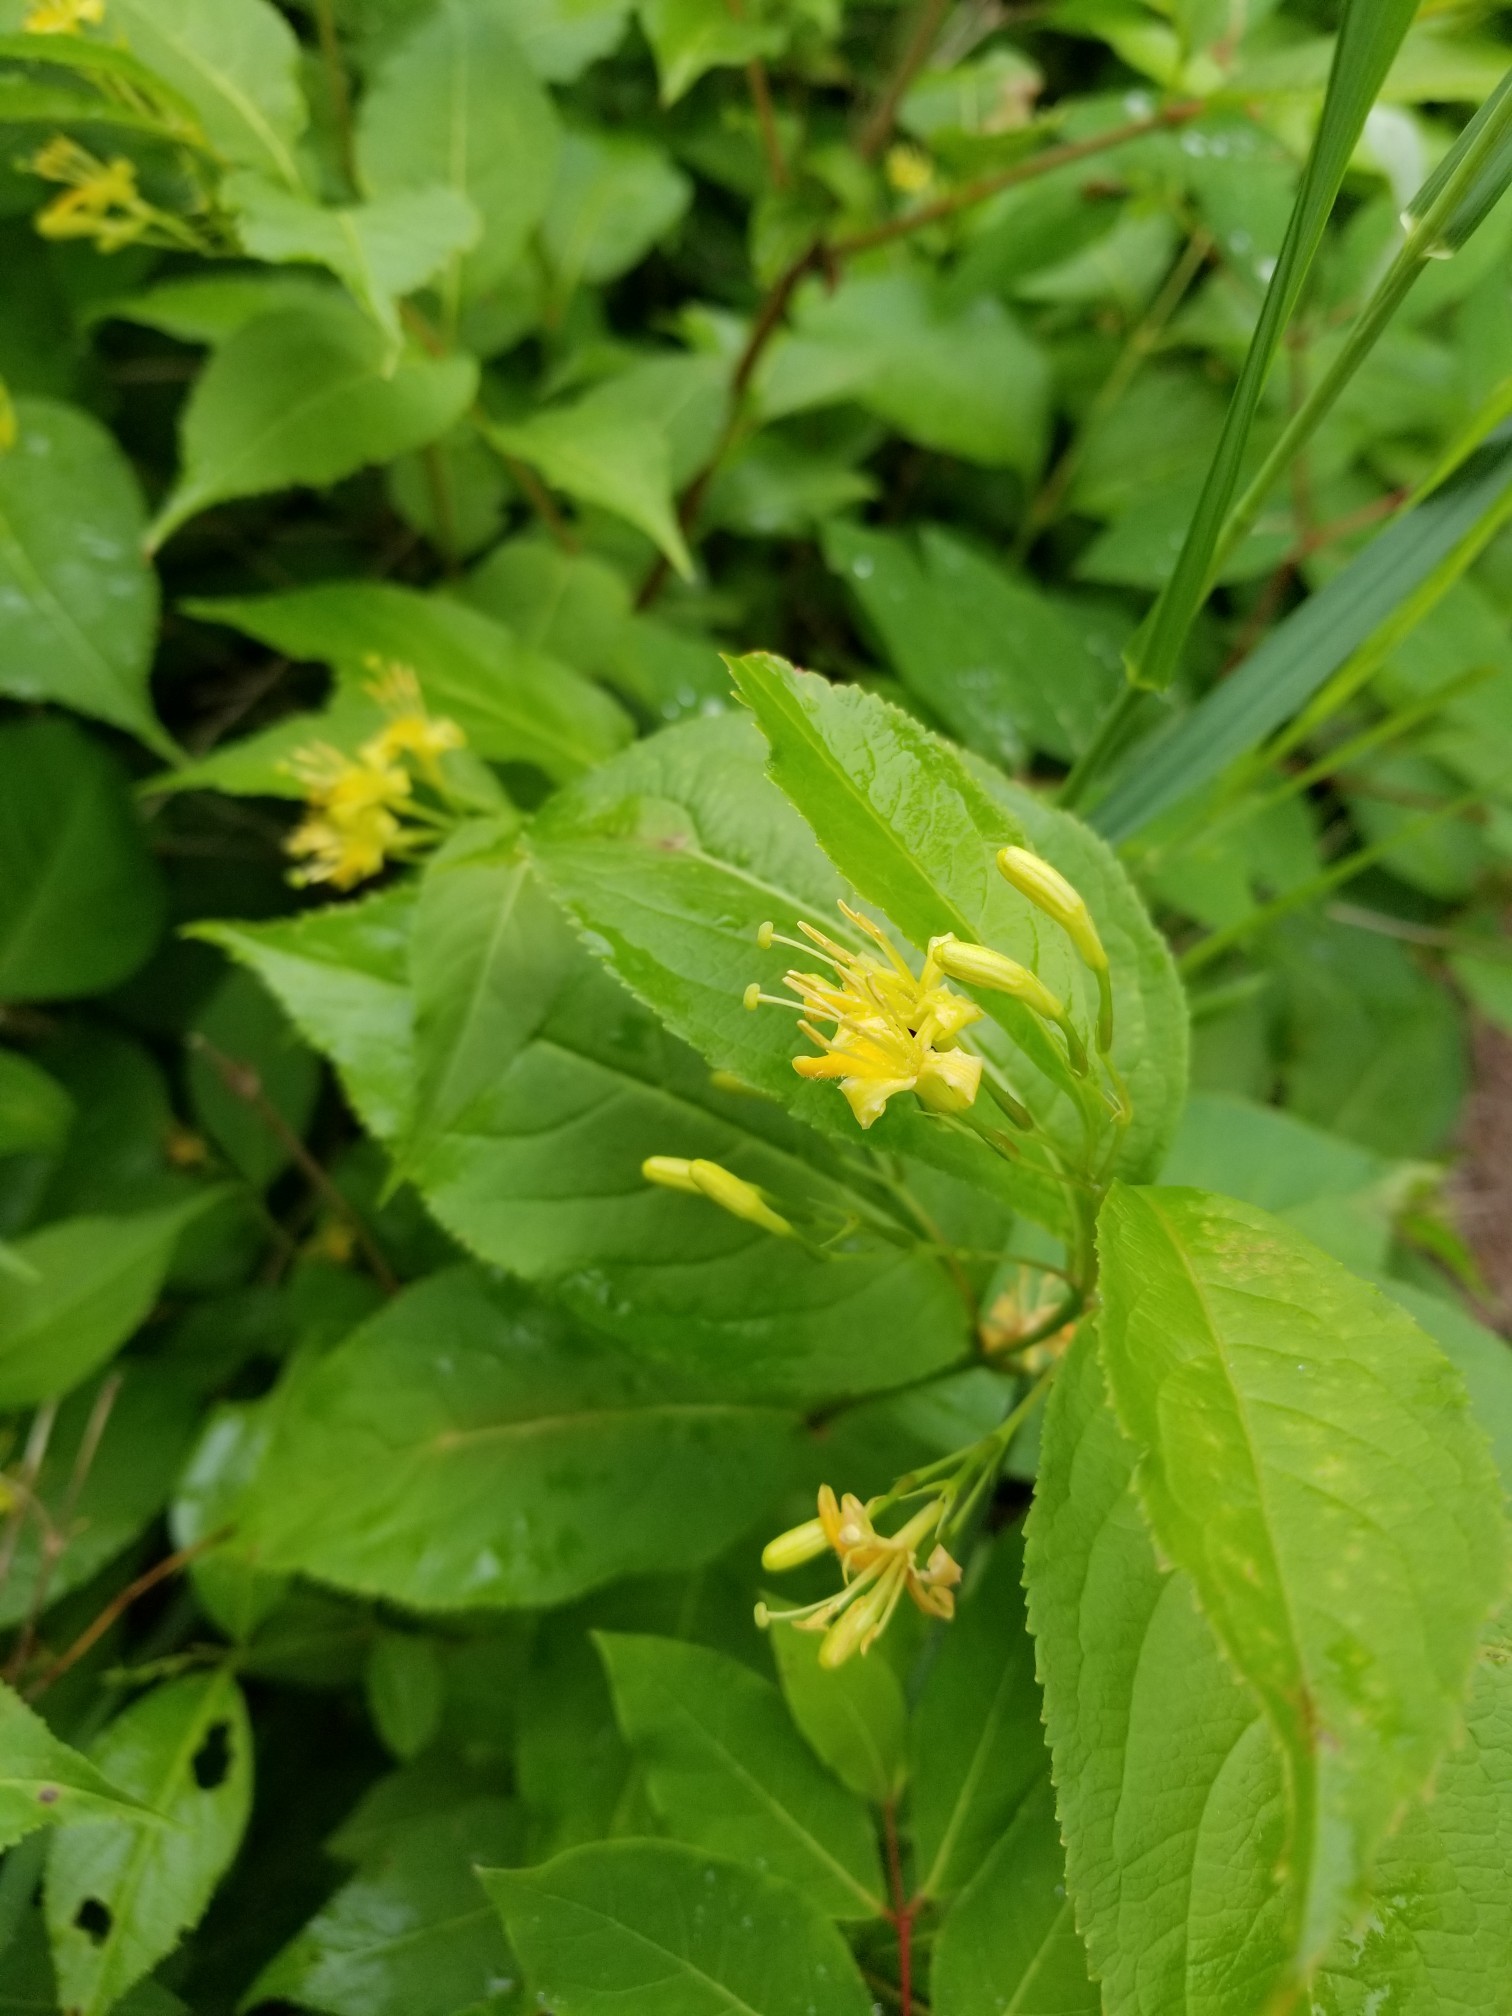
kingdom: Plantae
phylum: Tracheophyta
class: Magnoliopsida
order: Dipsacales
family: Caprifoliaceae
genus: Diervilla
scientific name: Diervilla lonicera
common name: Bush-honeysuckle
